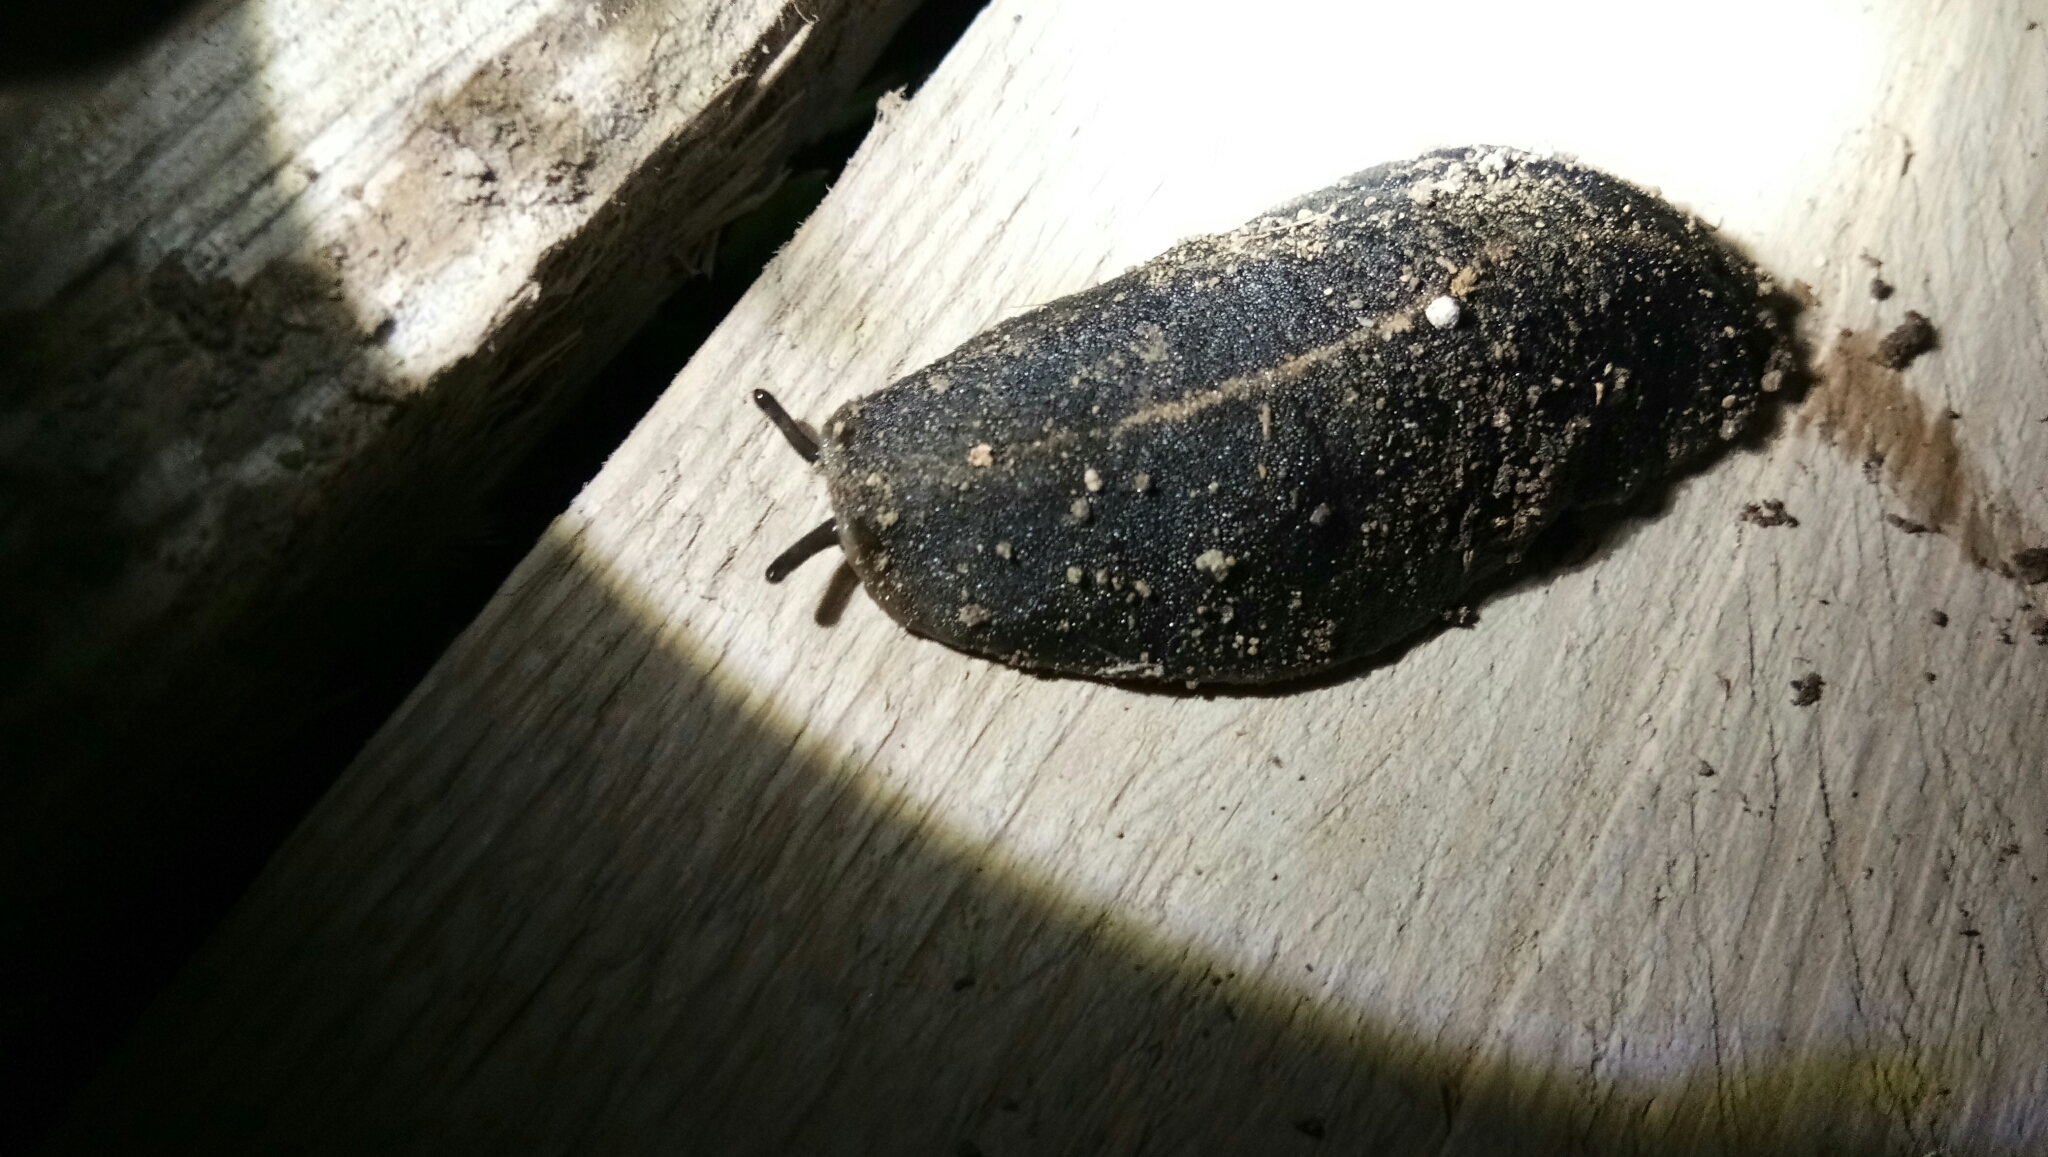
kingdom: Animalia
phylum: Mollusca
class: Gastropoda
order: Systellommatophora
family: Veronicellidae
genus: Laevicaulis
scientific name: Laevicaulis alte
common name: Tropical leatherleaf
